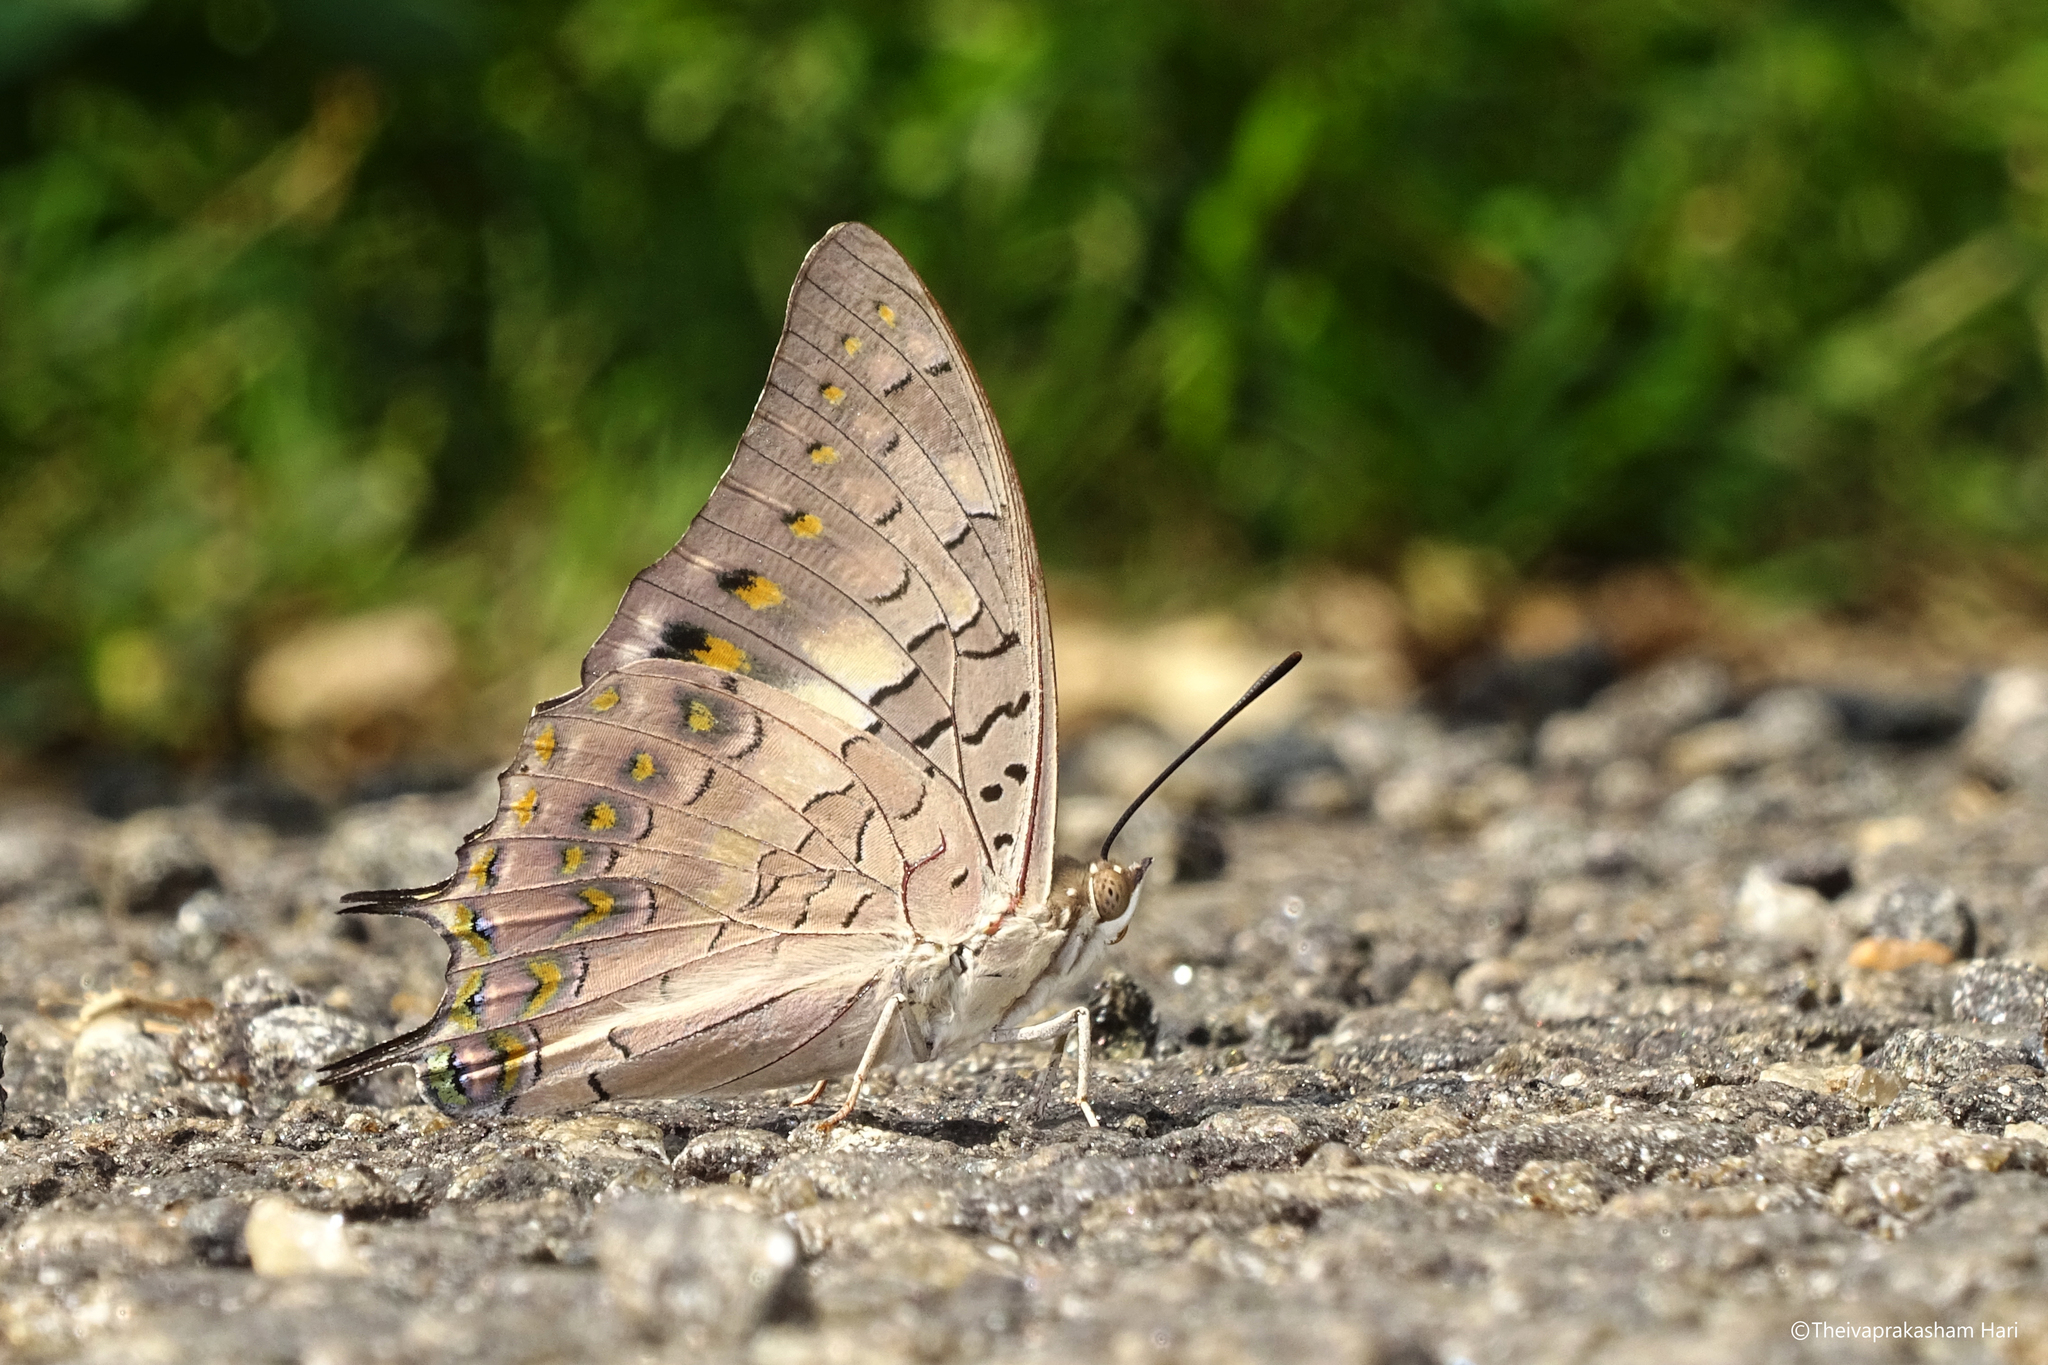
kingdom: Animalia
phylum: Arthropoda
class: Insecta
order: Lepidoptera
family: Nymphalidae
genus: Charaxes
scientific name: Charaxes solon
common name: Black rajah
